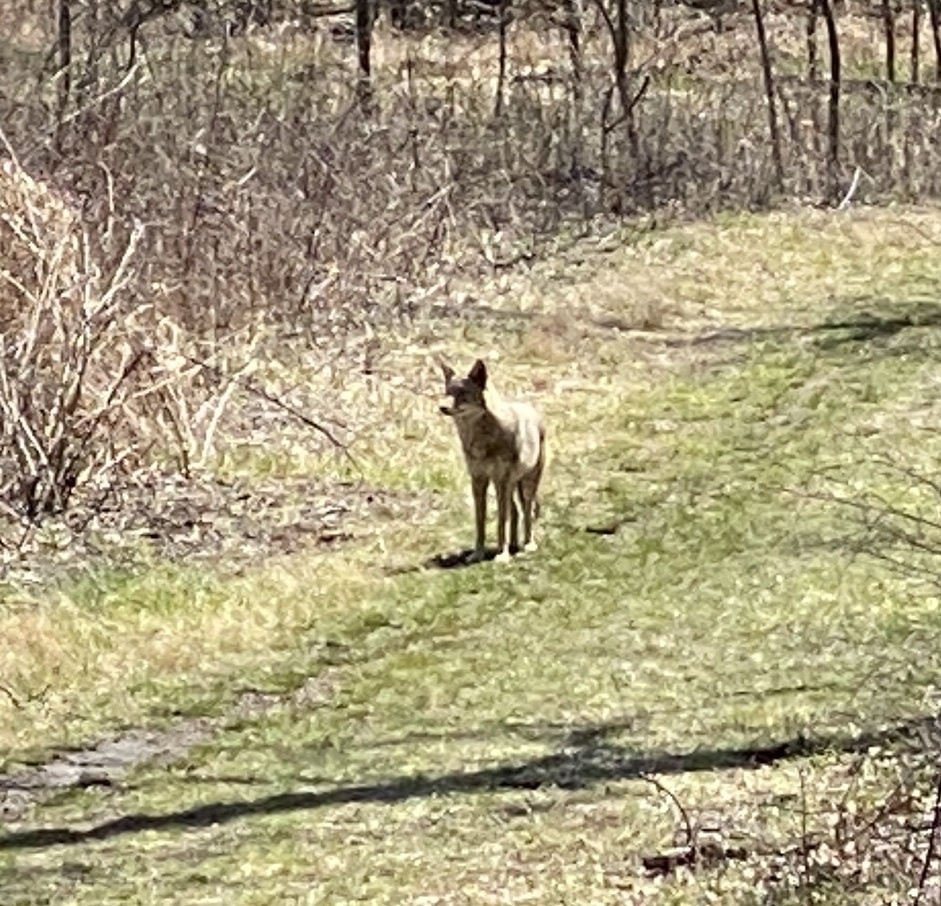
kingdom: Animalia
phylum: Chordata
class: Mammalia
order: Carnivora
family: Canidae
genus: Canis
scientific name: Canis latrans
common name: Coyote
